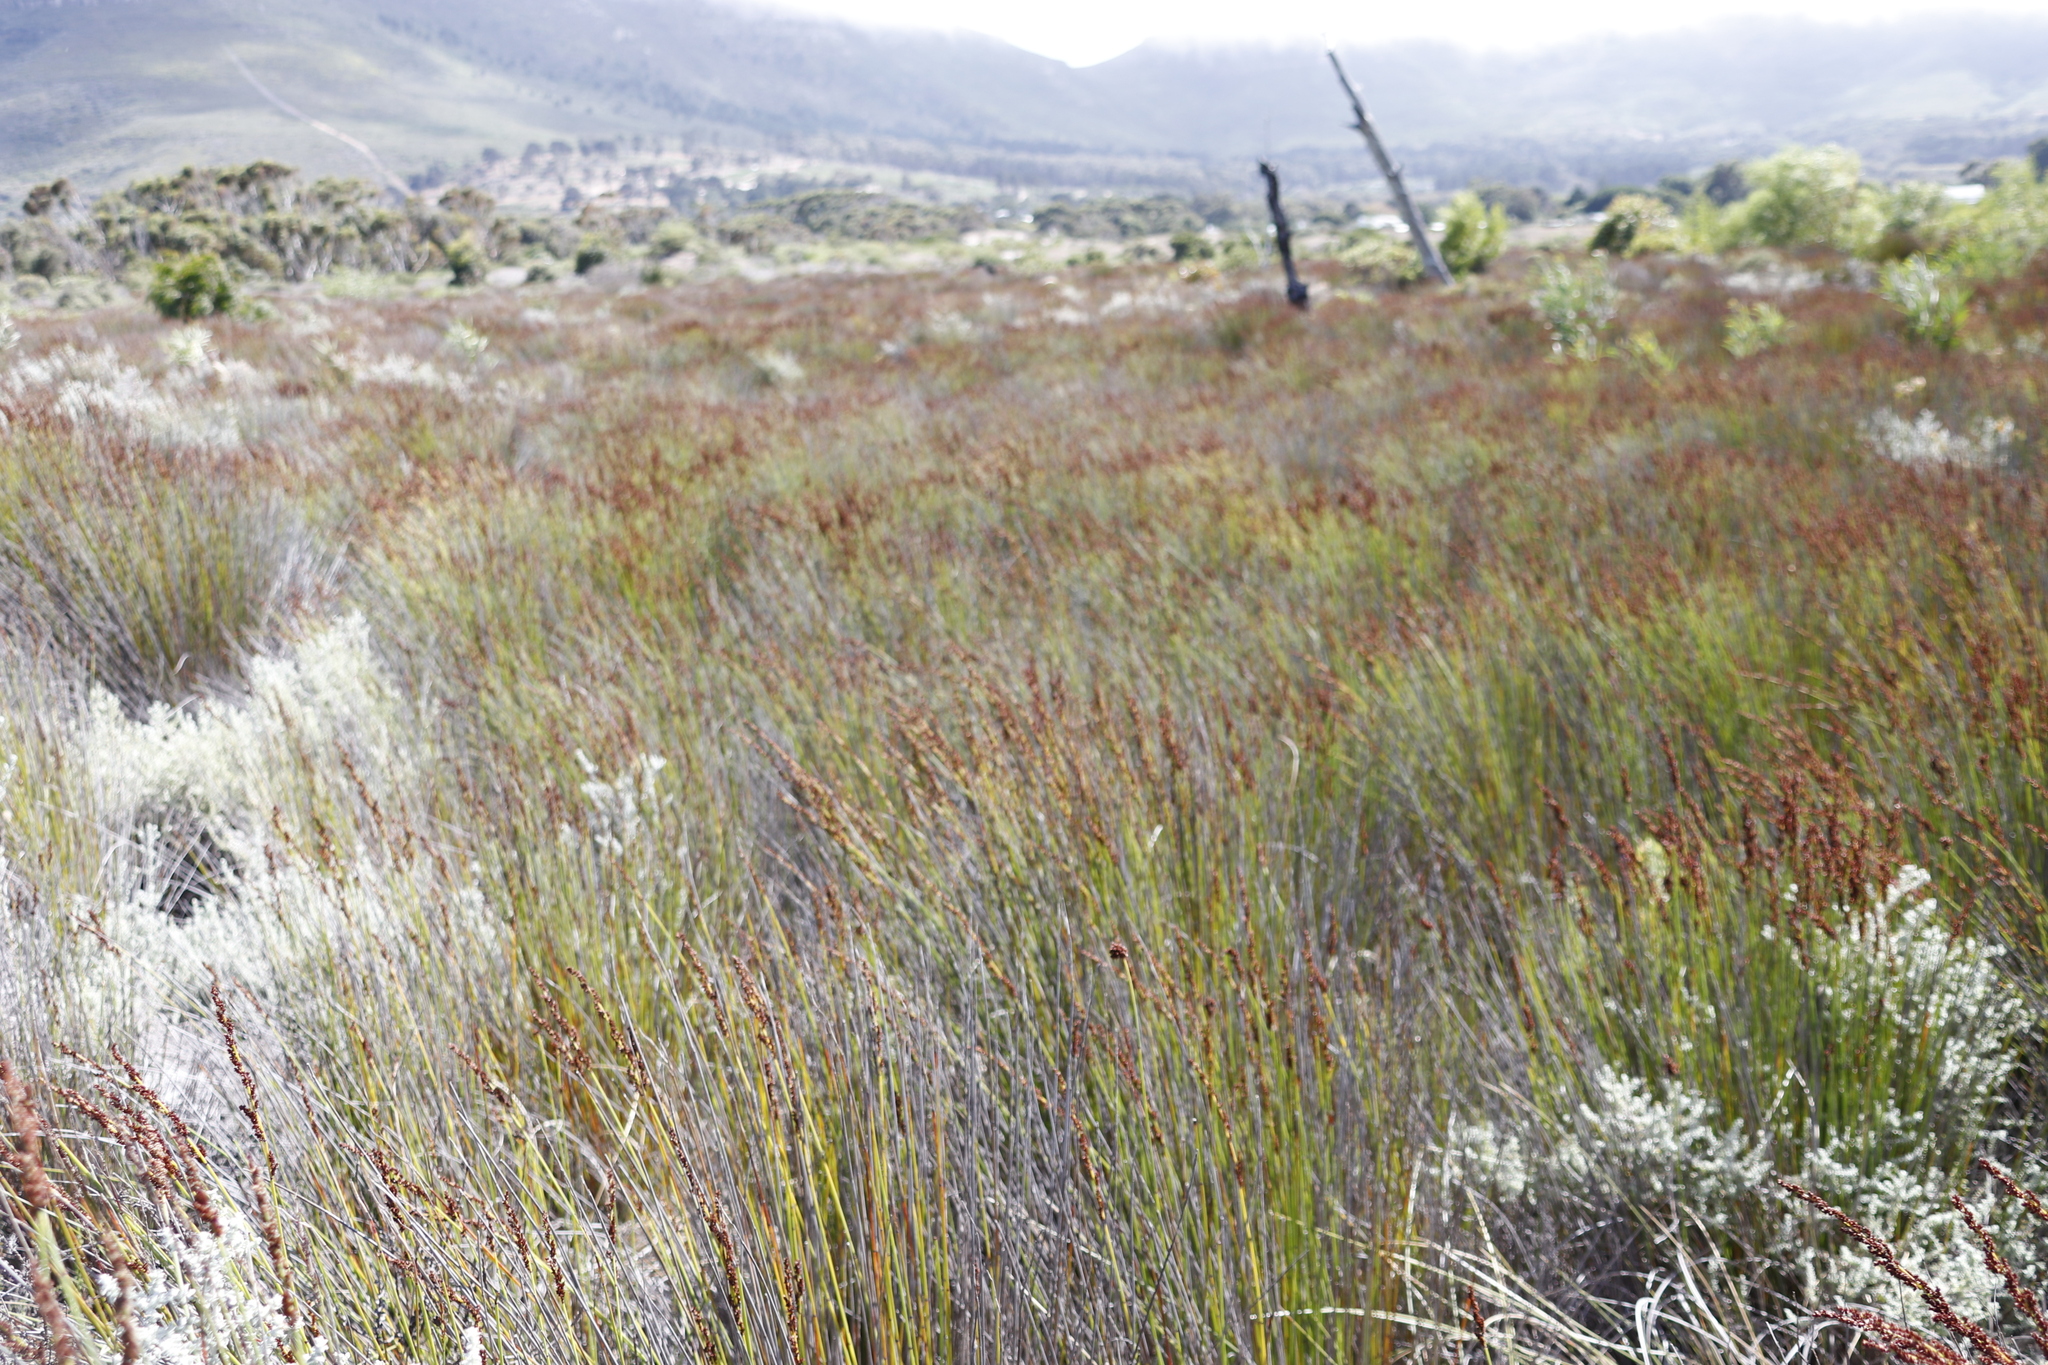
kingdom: Plantae
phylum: Tracheophyta
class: Liliopsida
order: Poales
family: Restionaceae
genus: Elegia
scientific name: Elegia tectorum
